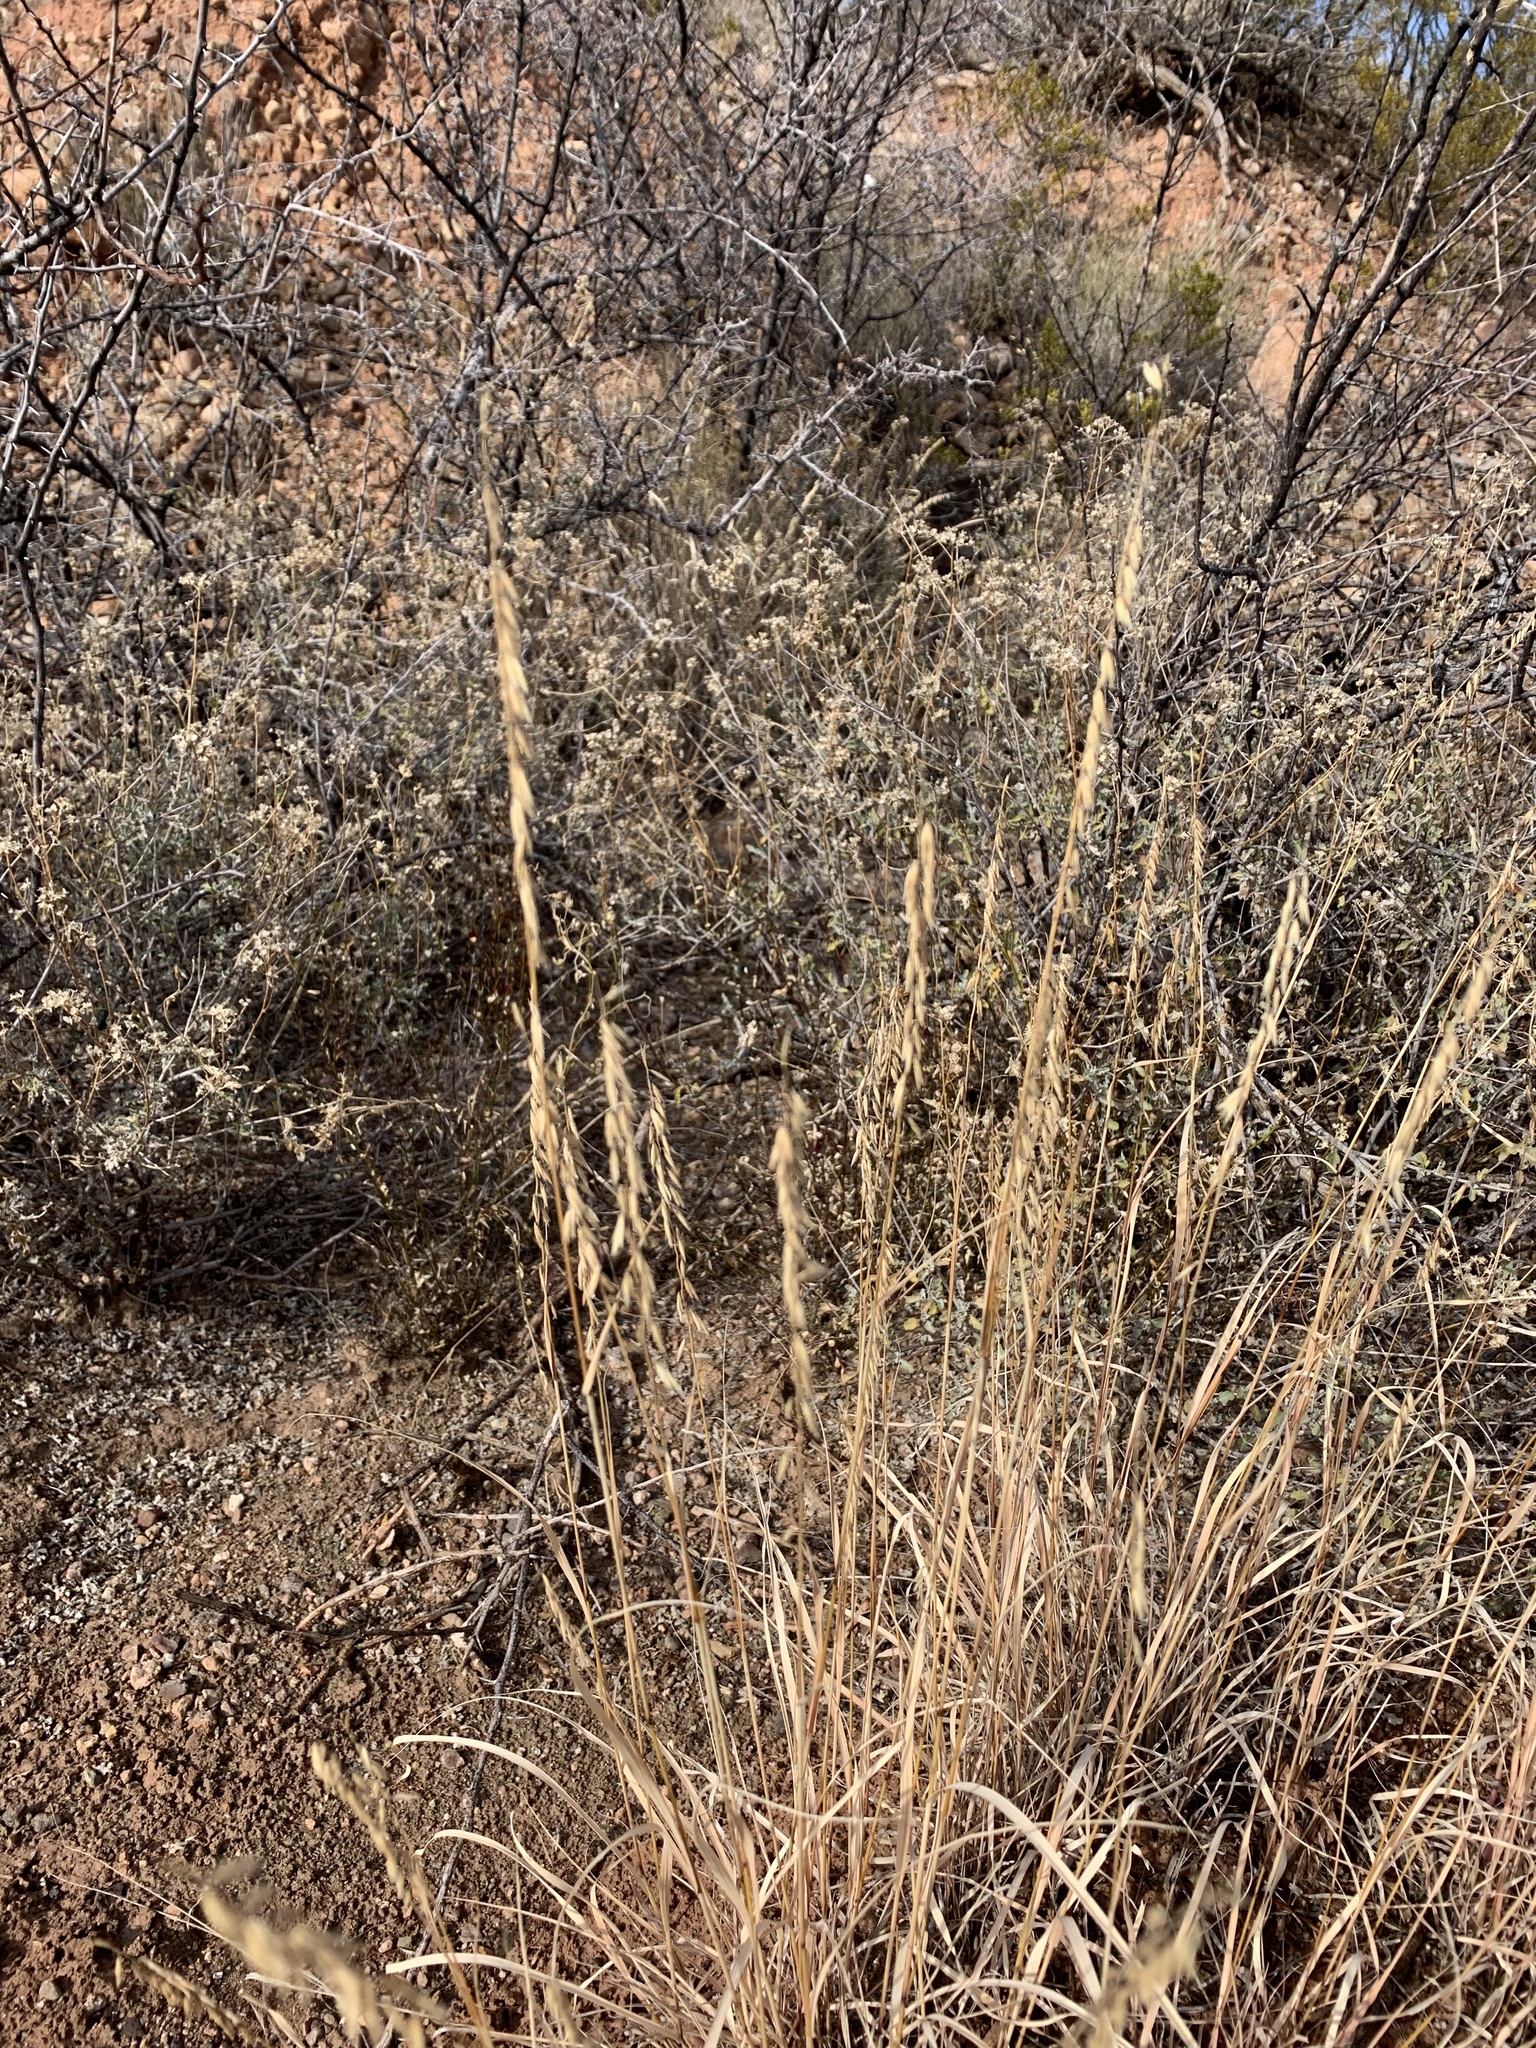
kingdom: Plantae
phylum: Tracheophyta
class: Liliopsida
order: Poales
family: Poaceae
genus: Bouteloua
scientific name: Bouteloua curtipendula
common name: Side-oats grama
